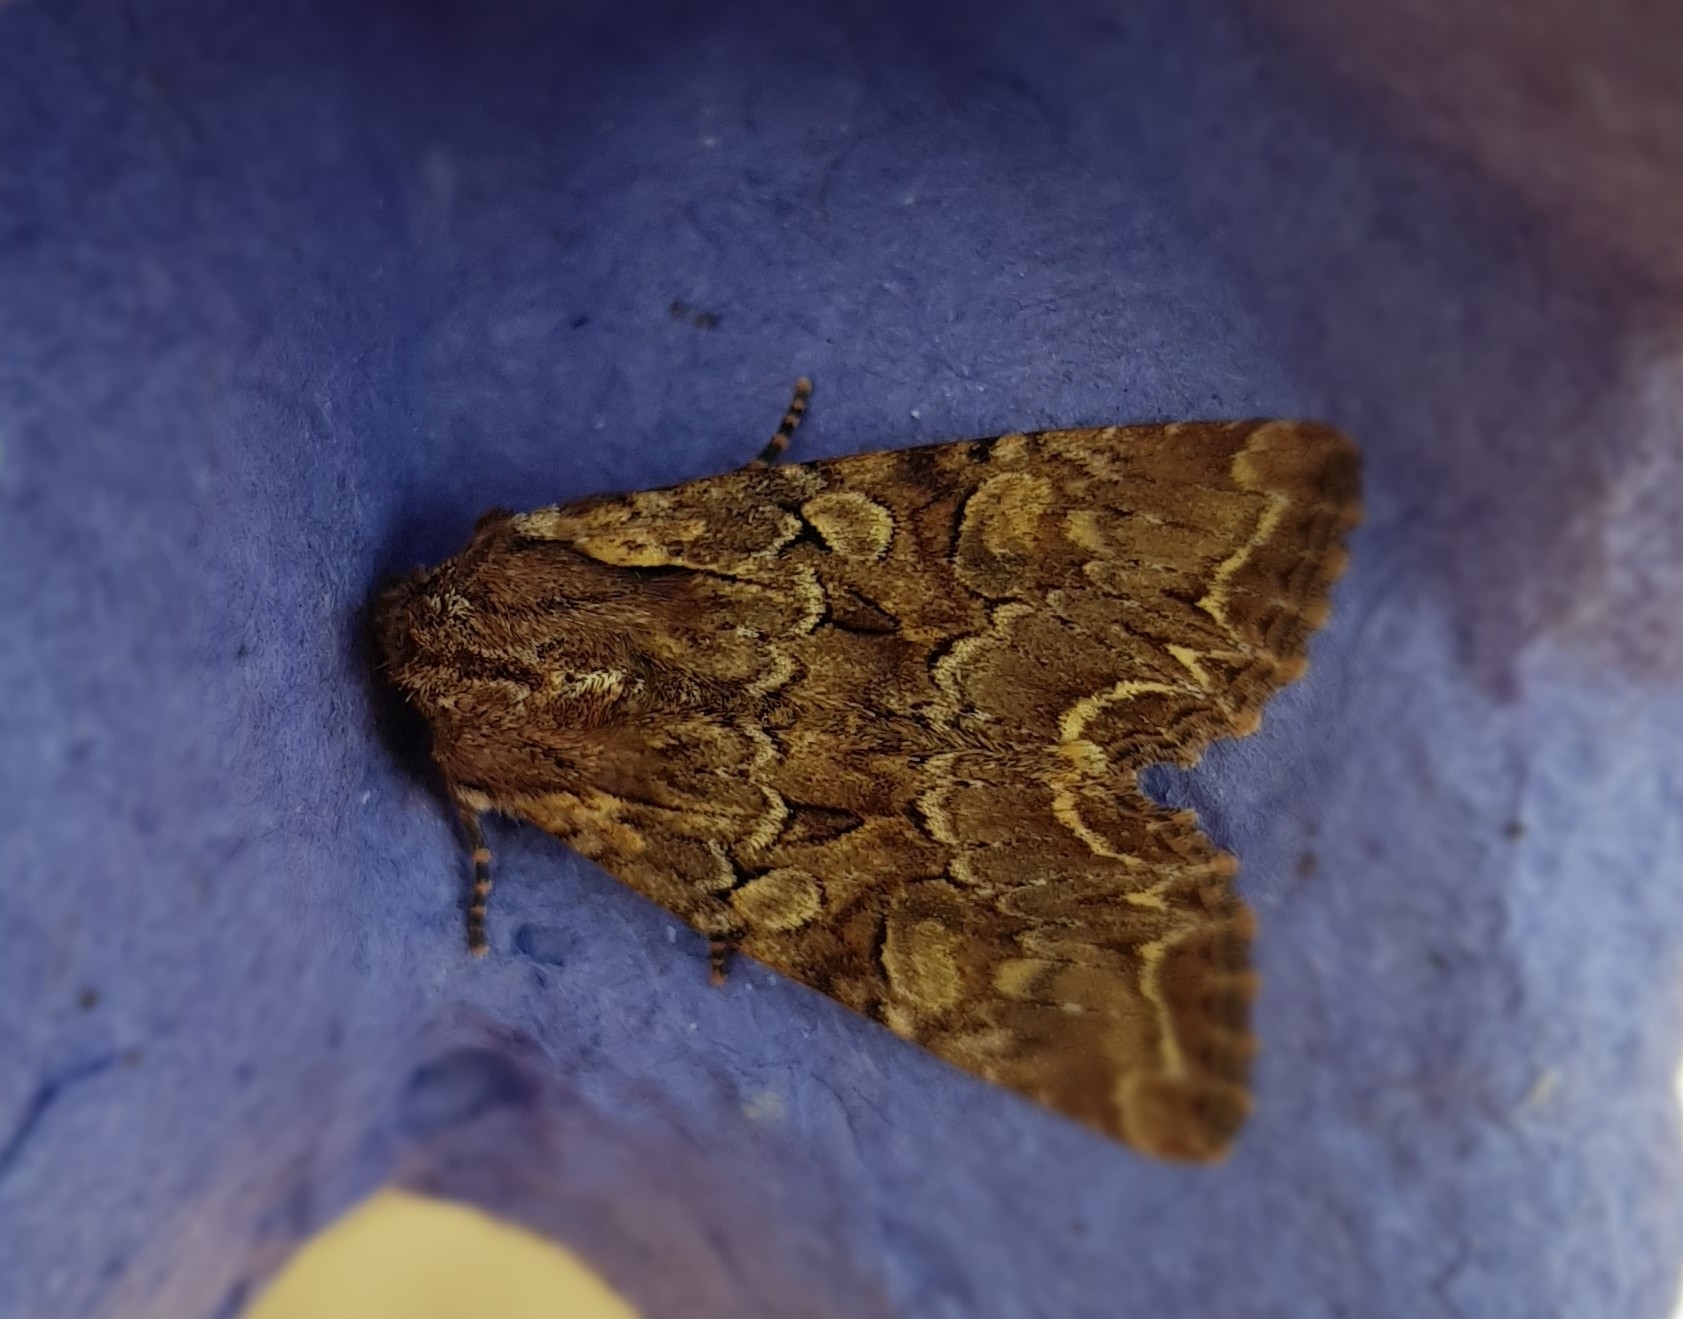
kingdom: Animalia
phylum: Arthropoda
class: Insecta
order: Lepidoptera
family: Noctuidae
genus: Lacanobia
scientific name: Lacanobia thalassina
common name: Pale-shouldered brocade
